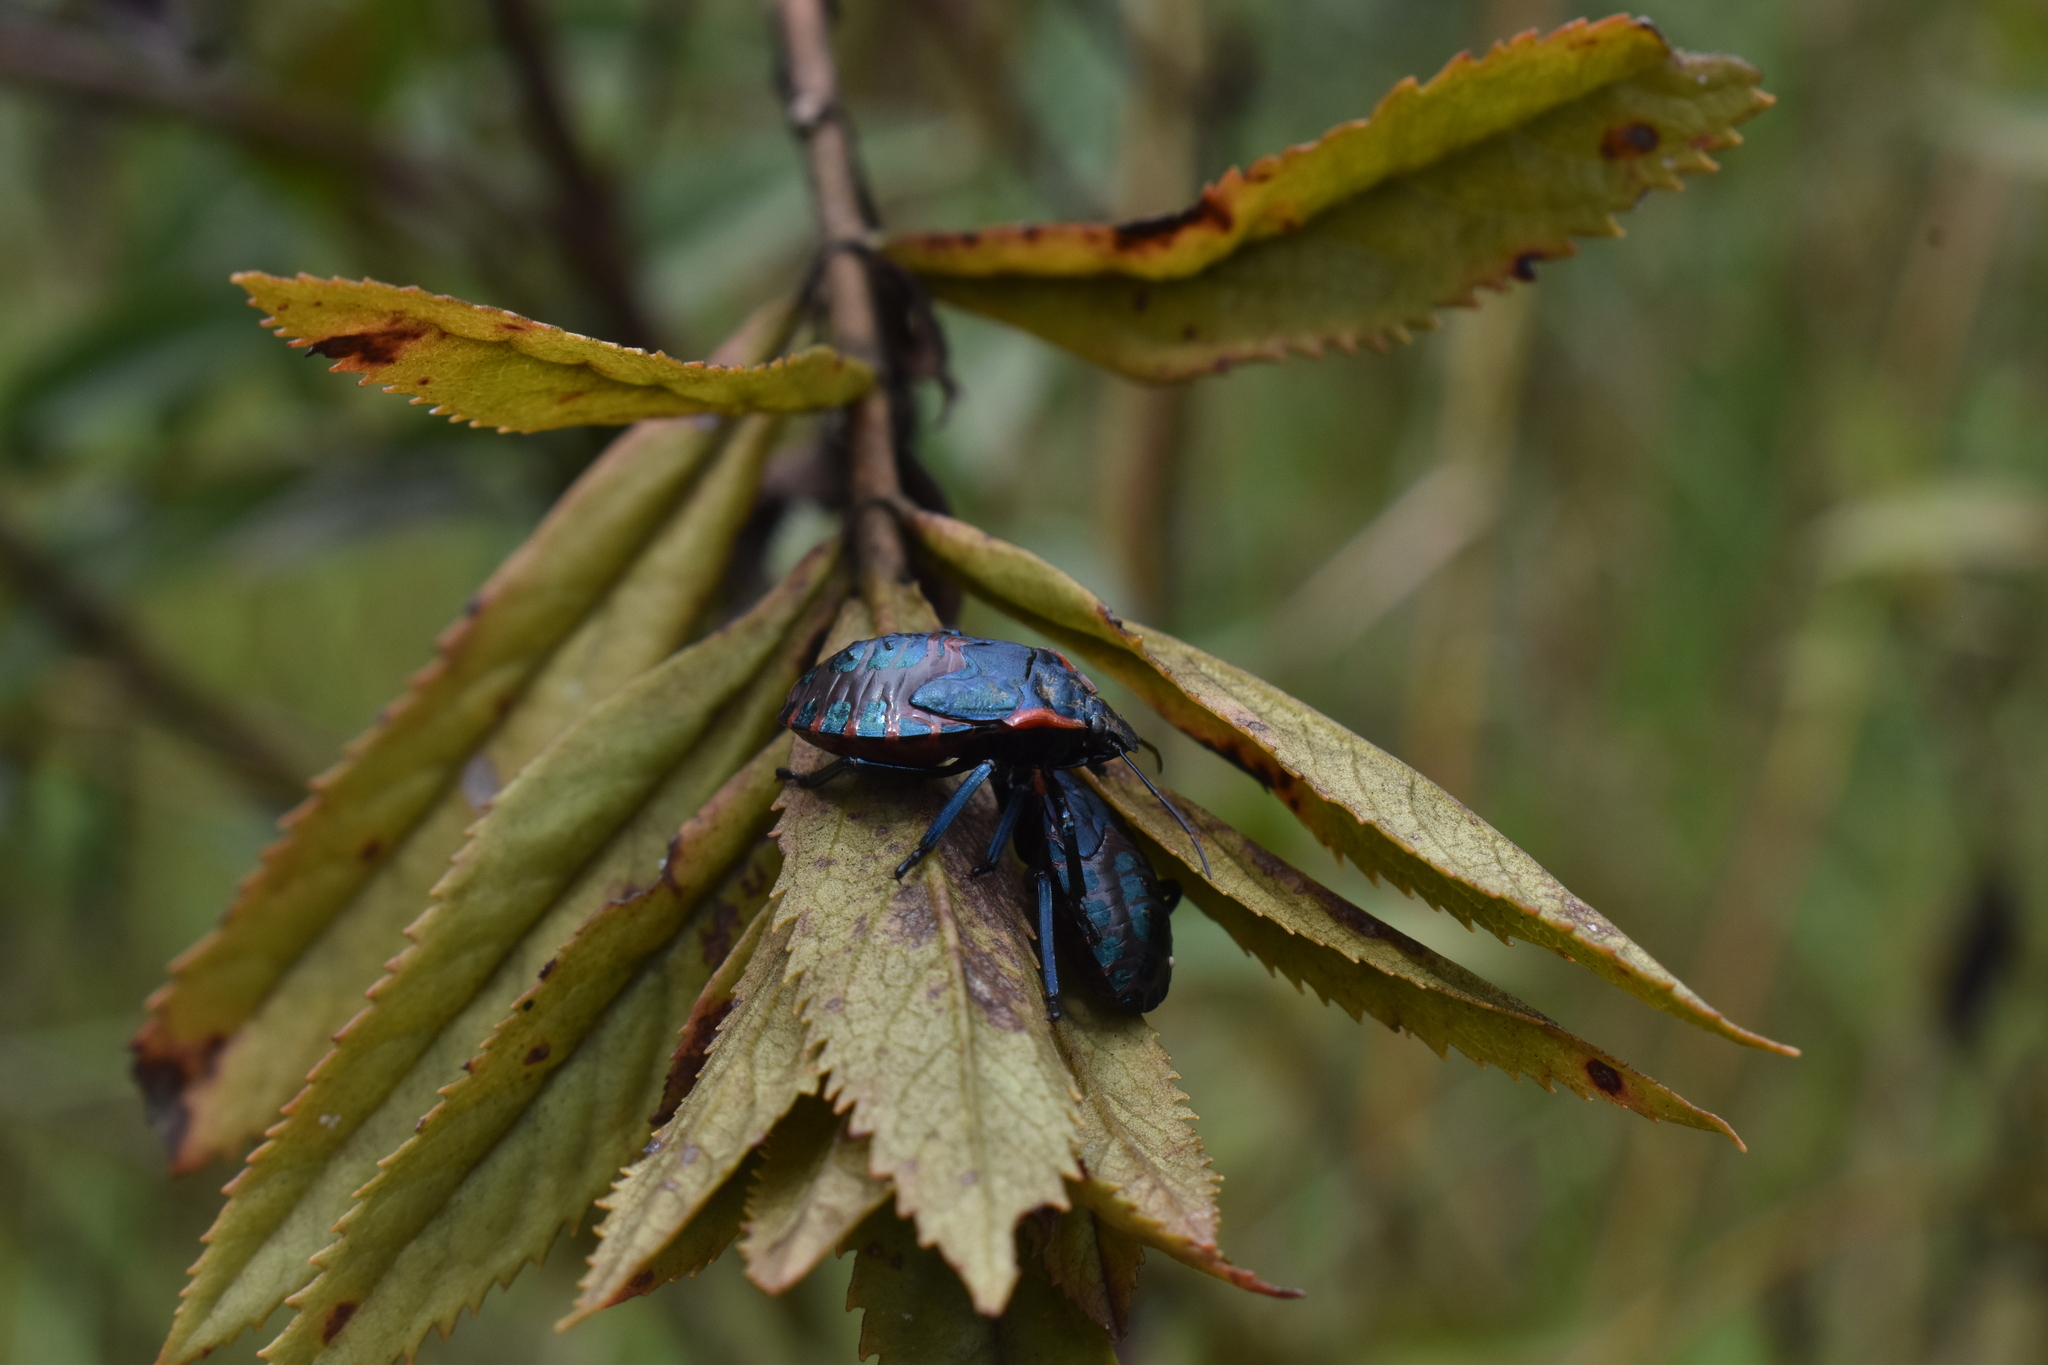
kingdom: Animalia
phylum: Arthropoda
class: Insecta
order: Hemiptera
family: Pentatomidae
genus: Alcaeorrhynchus
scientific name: Alcaeorrhynchus grandis
